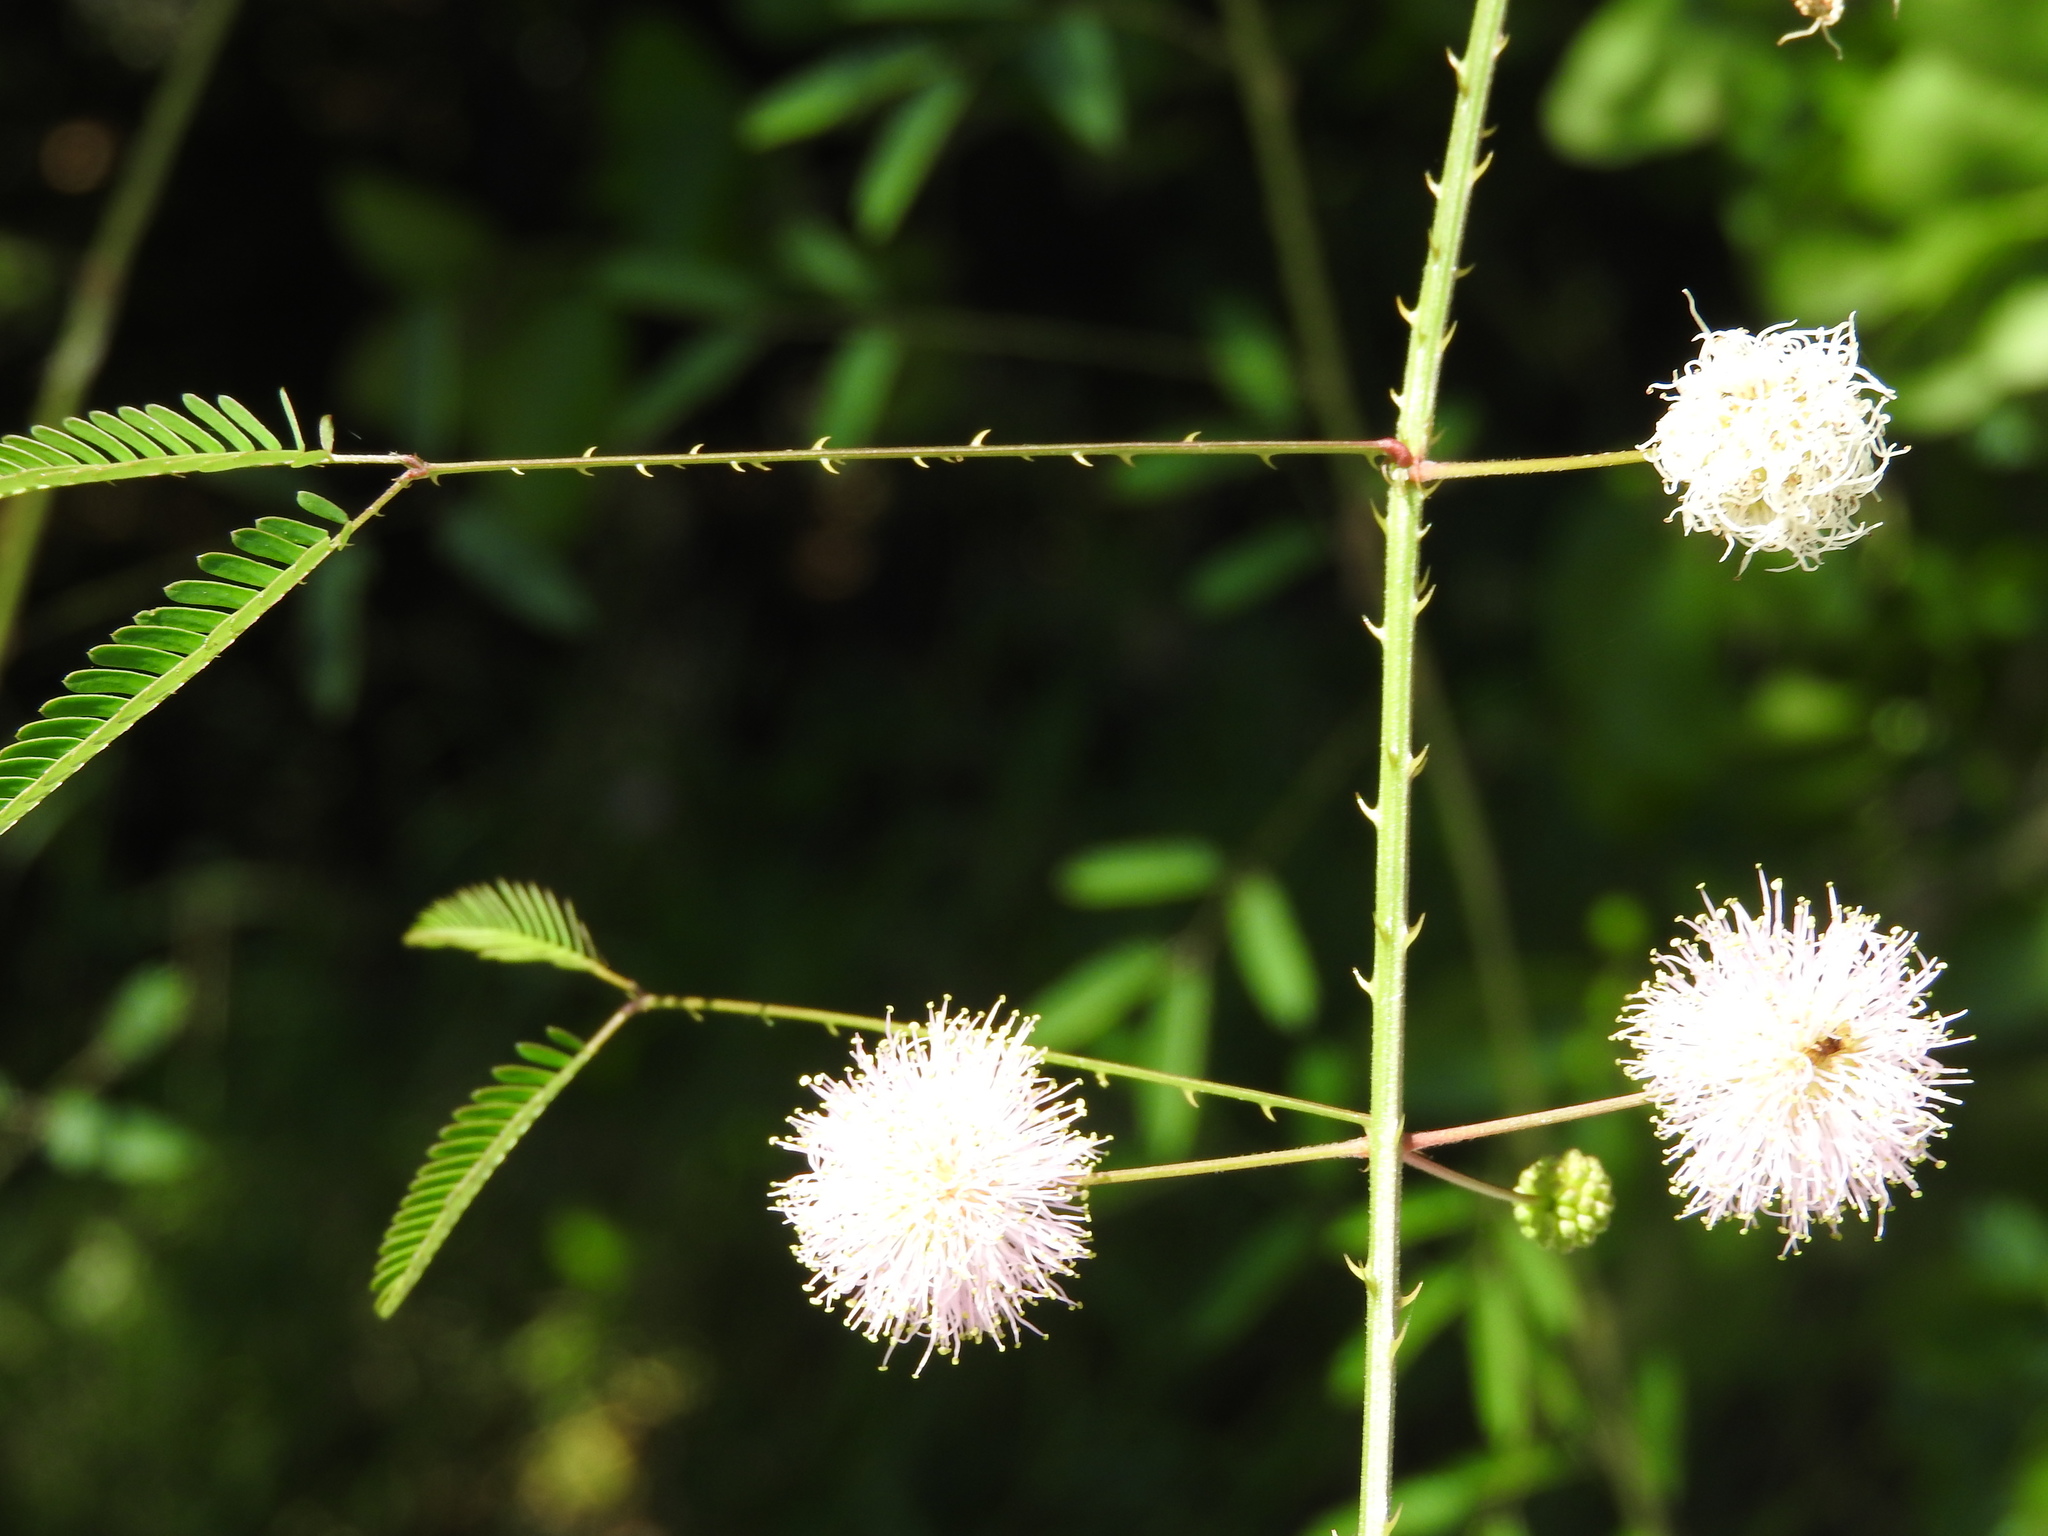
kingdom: Plantae
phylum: Tracheophyta
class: Magnoliopsida
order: Fabales
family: Fabaceae
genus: Mimosa
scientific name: Mimosa quadrivalvis
